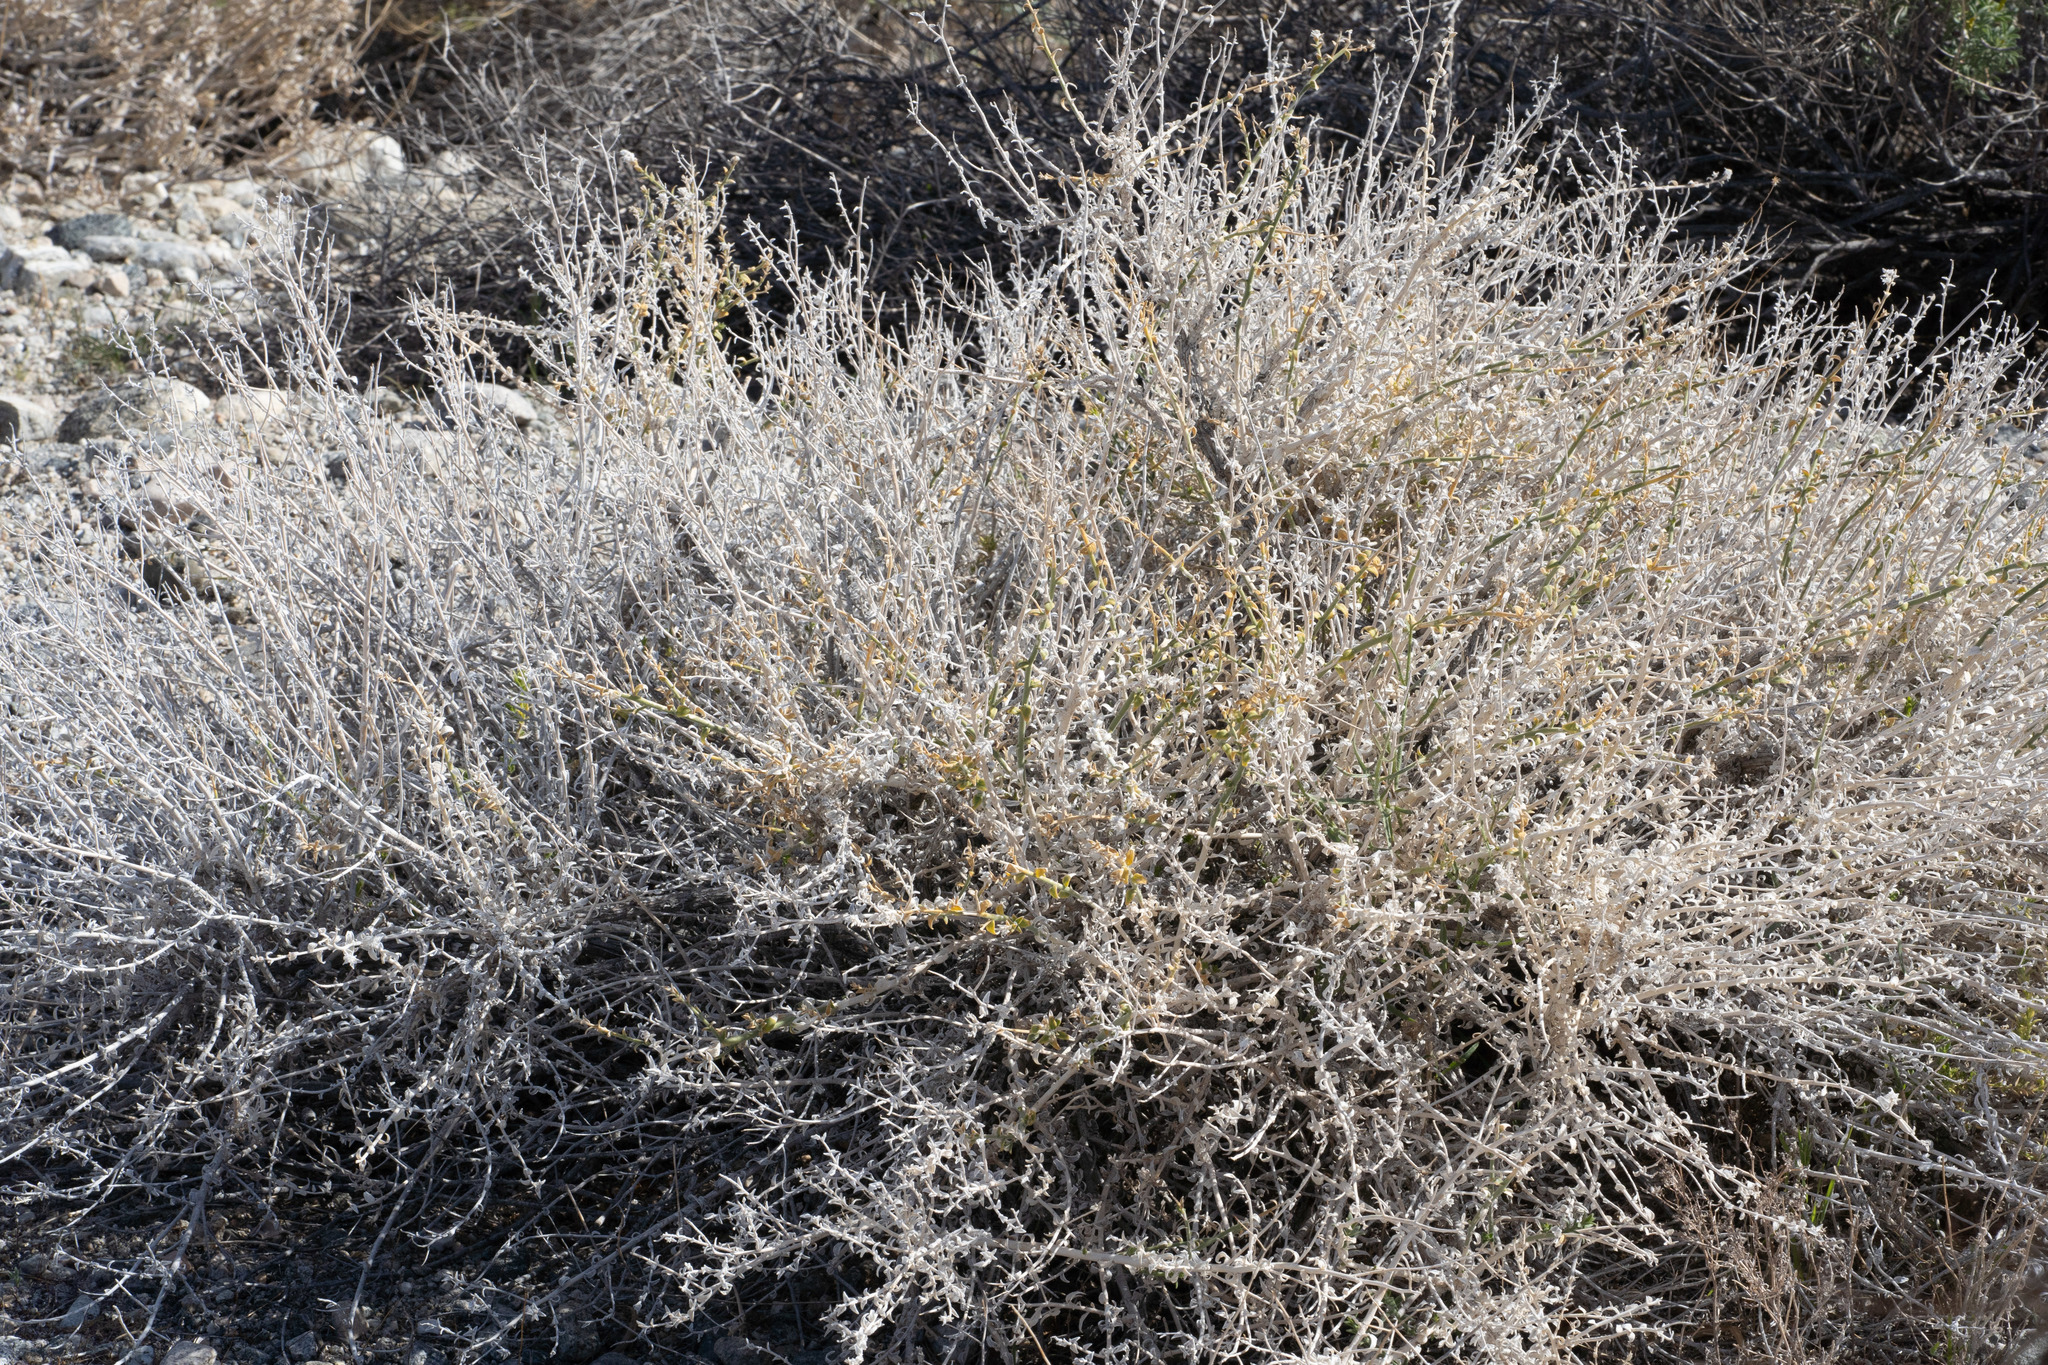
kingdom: Plantae
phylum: Tracheophyta
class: Magnoliopsida
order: Cornales
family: Loasaceae
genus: Petalonyx
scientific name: Petalonyx thurberi
